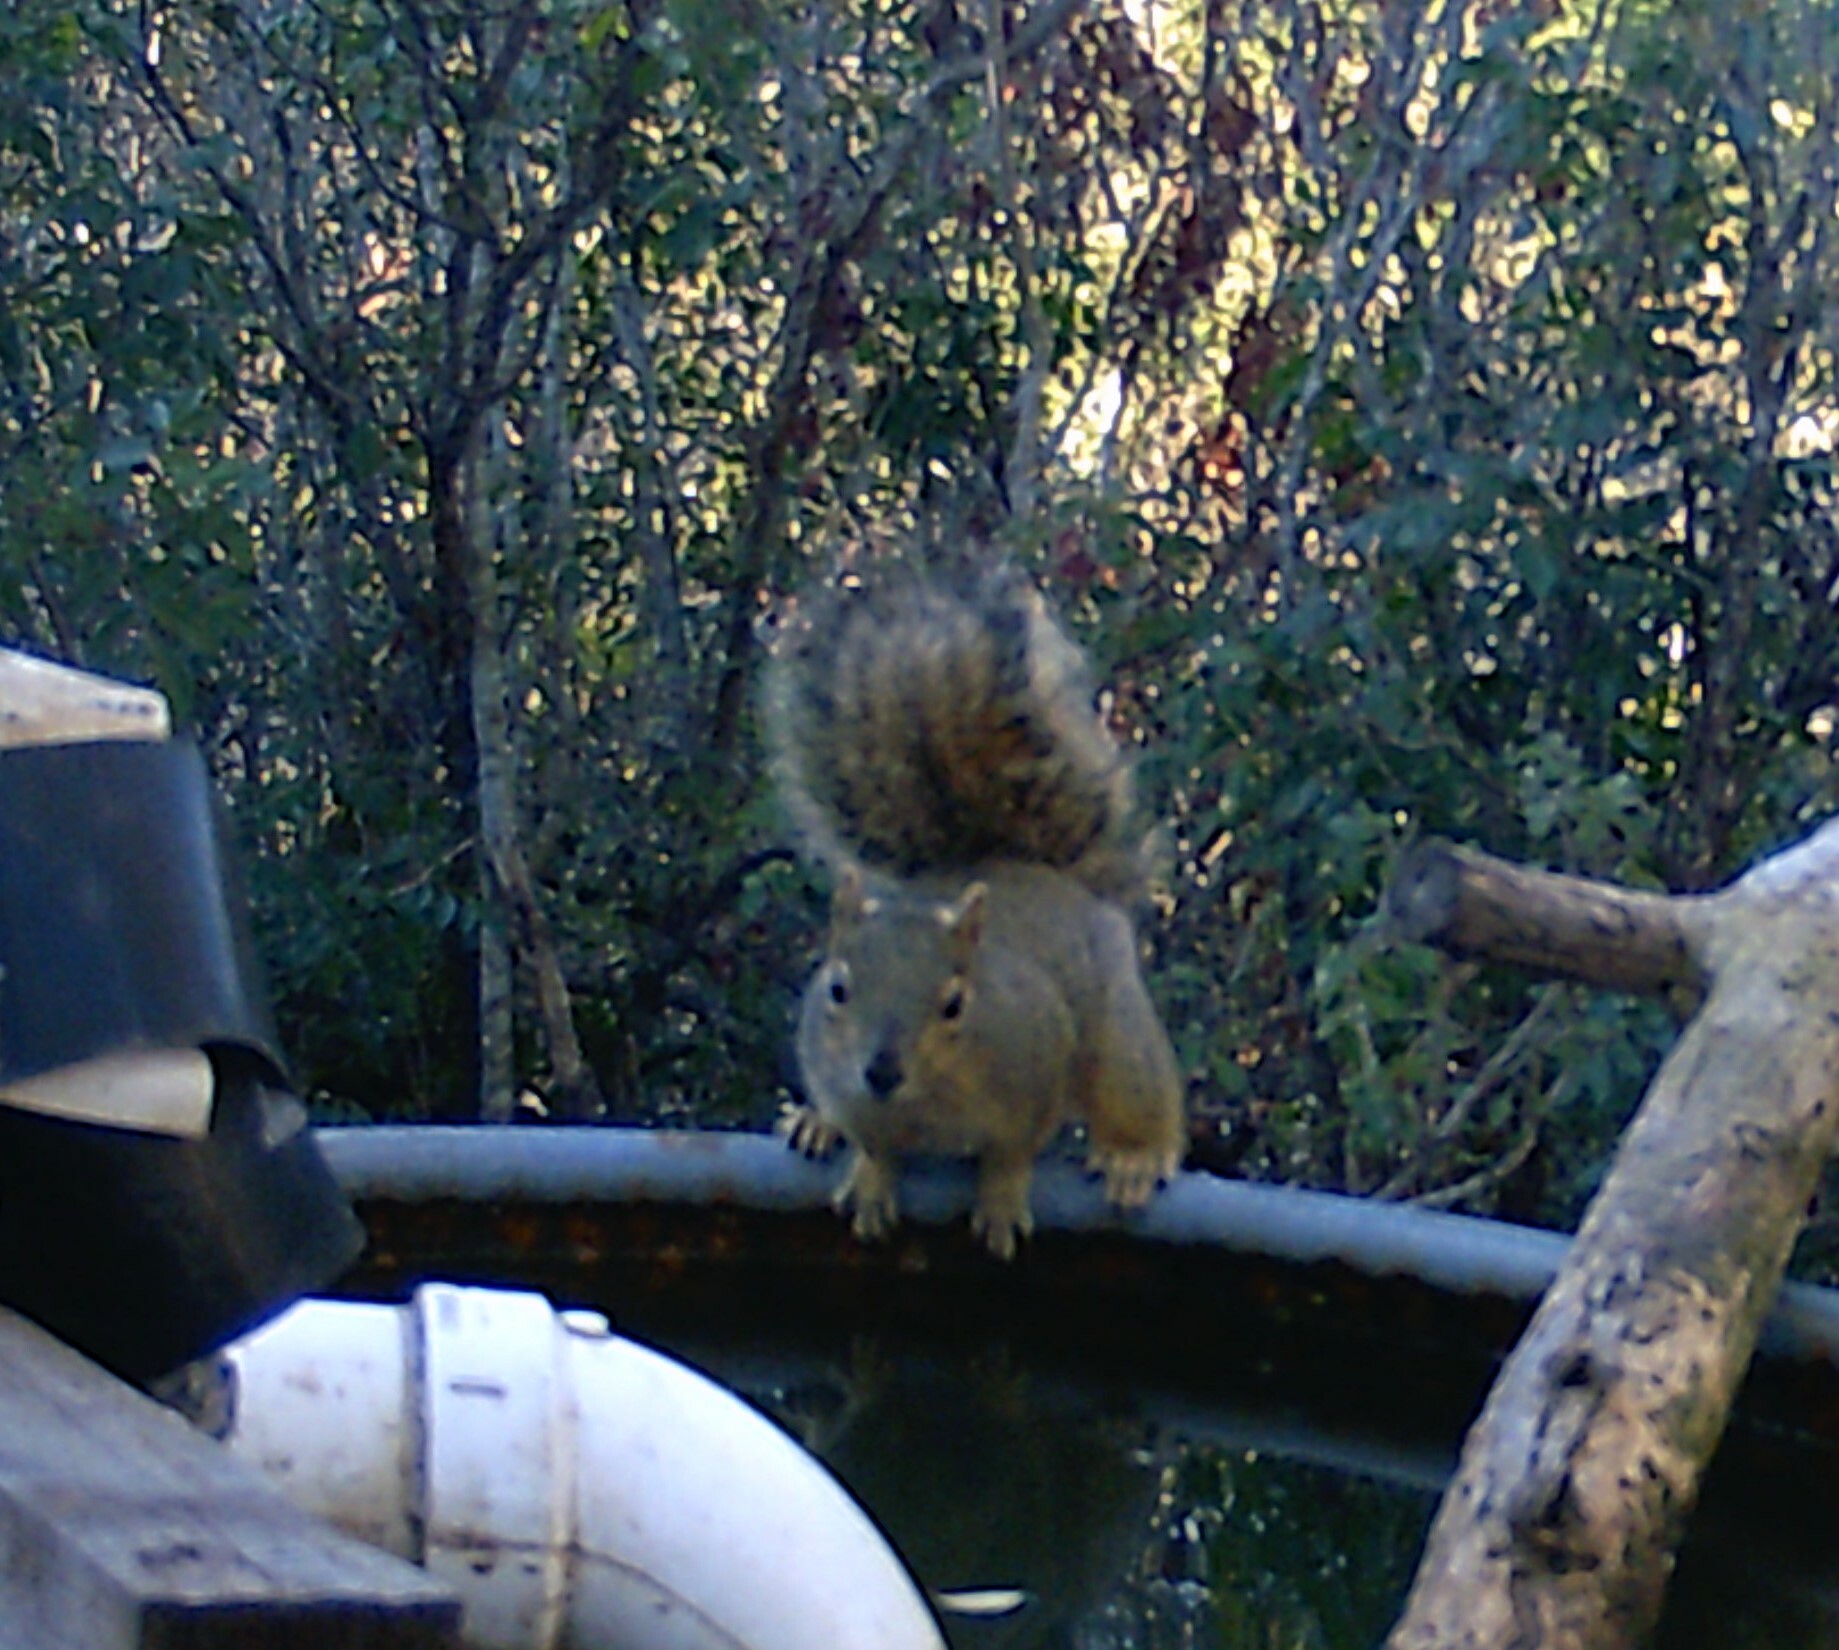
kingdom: Animalia
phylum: Chordata
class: Mammalia
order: Rodentia
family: Sciuridae
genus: Sciurus
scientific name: Sciurus niger
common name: Fox squirrel
